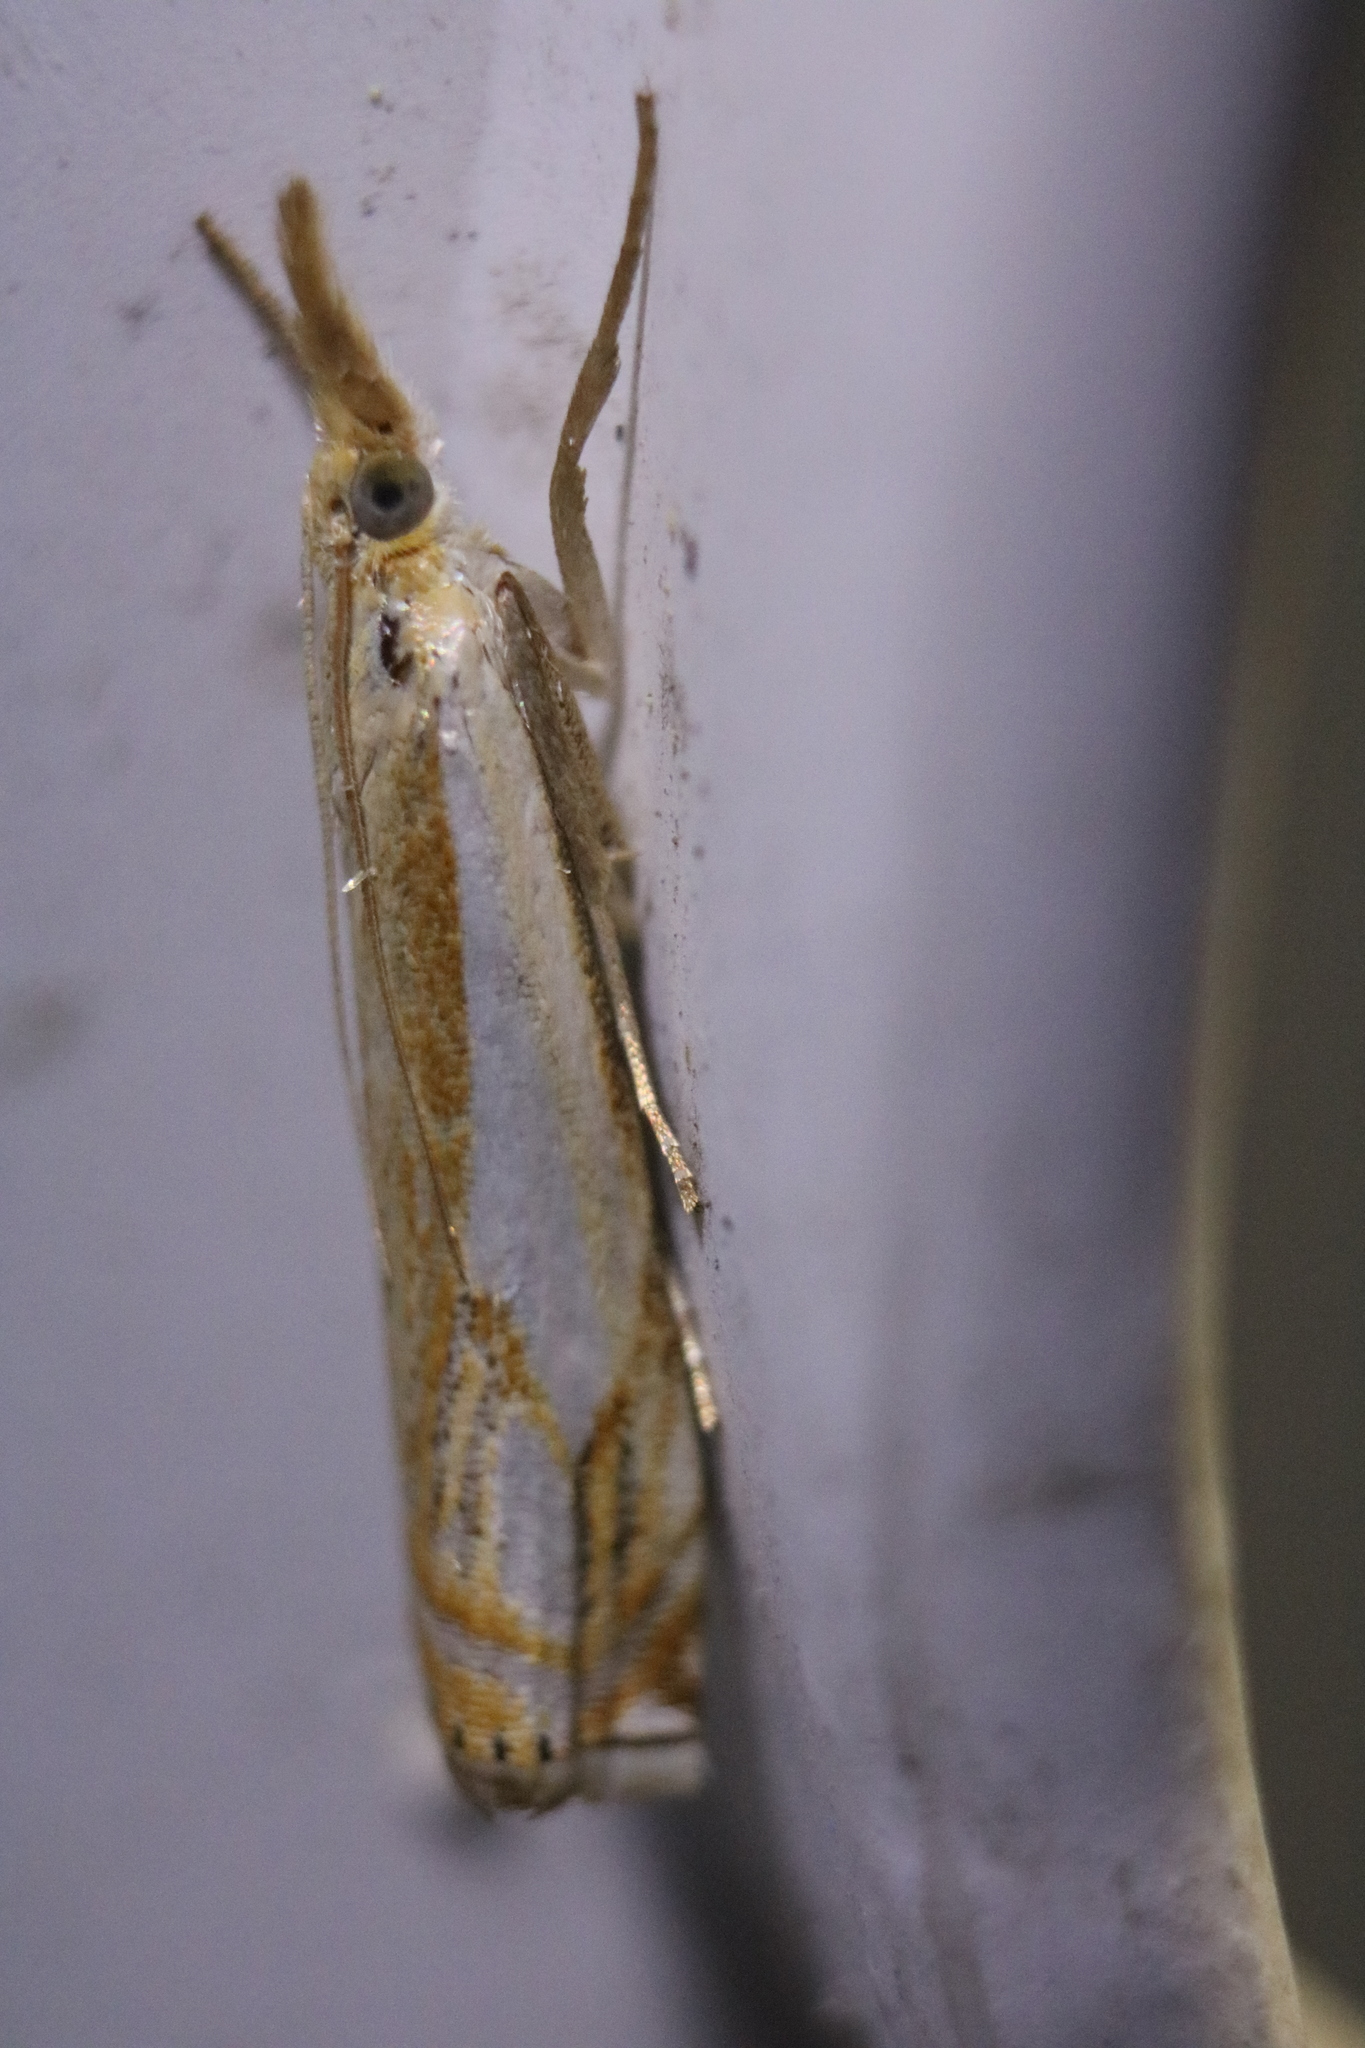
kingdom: Animalia
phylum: Arthropoda
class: Insecta
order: Lepidoptera
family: Crambidae
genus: Crambus
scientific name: Crambus agitatellus
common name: Double-banded grass-veneer
